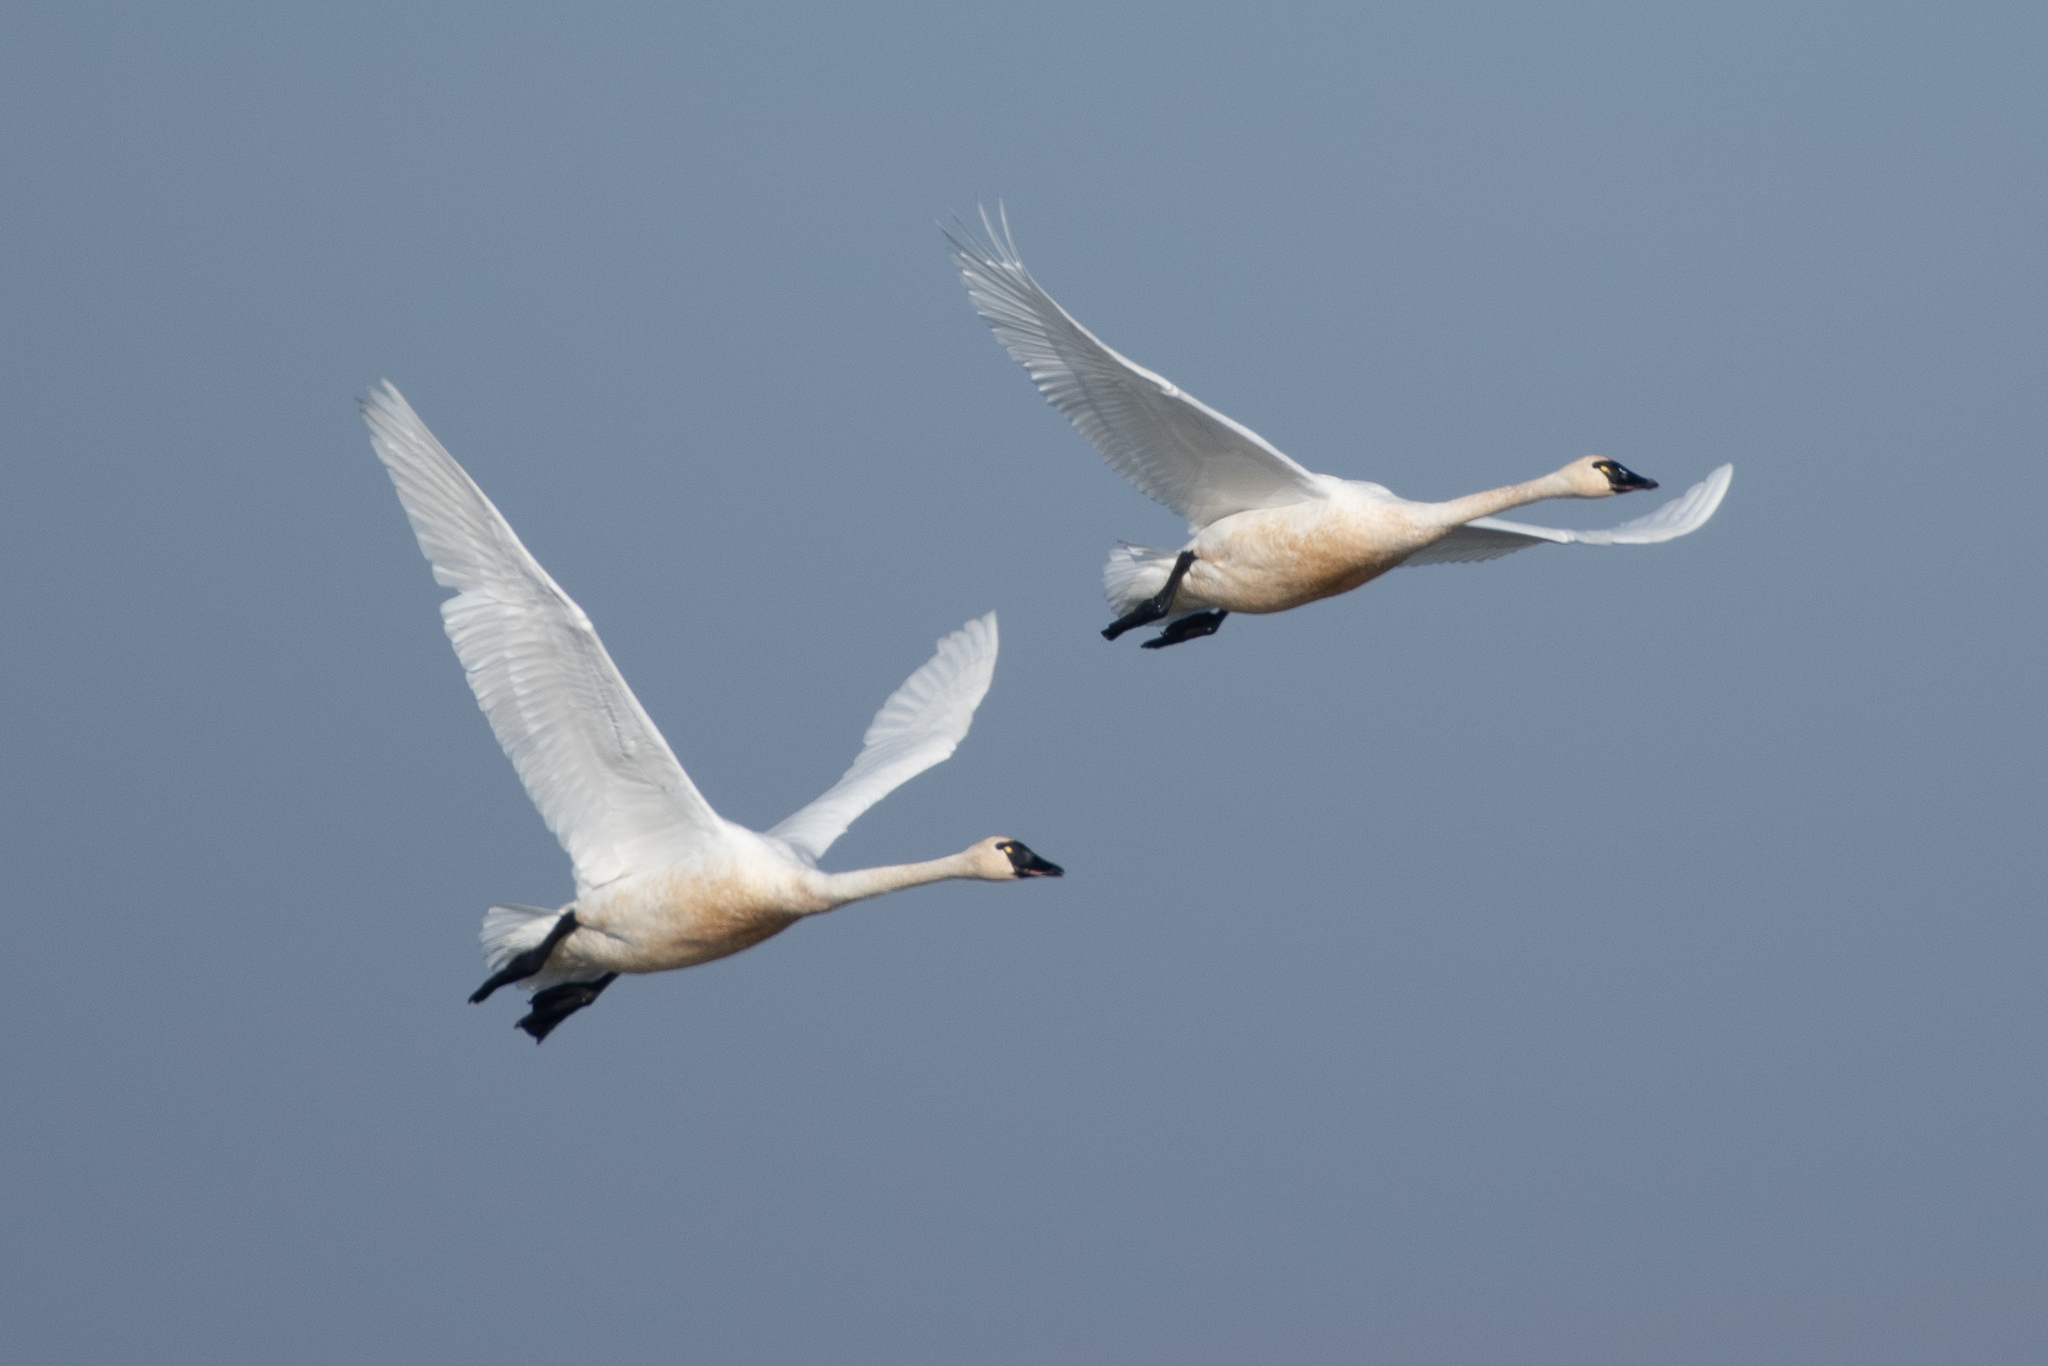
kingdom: Animalia
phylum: Chordata
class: Aves
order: Anseriformes
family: Anatidae
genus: Cygnus
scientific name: Cygnus columbianus
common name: Tundra swan
